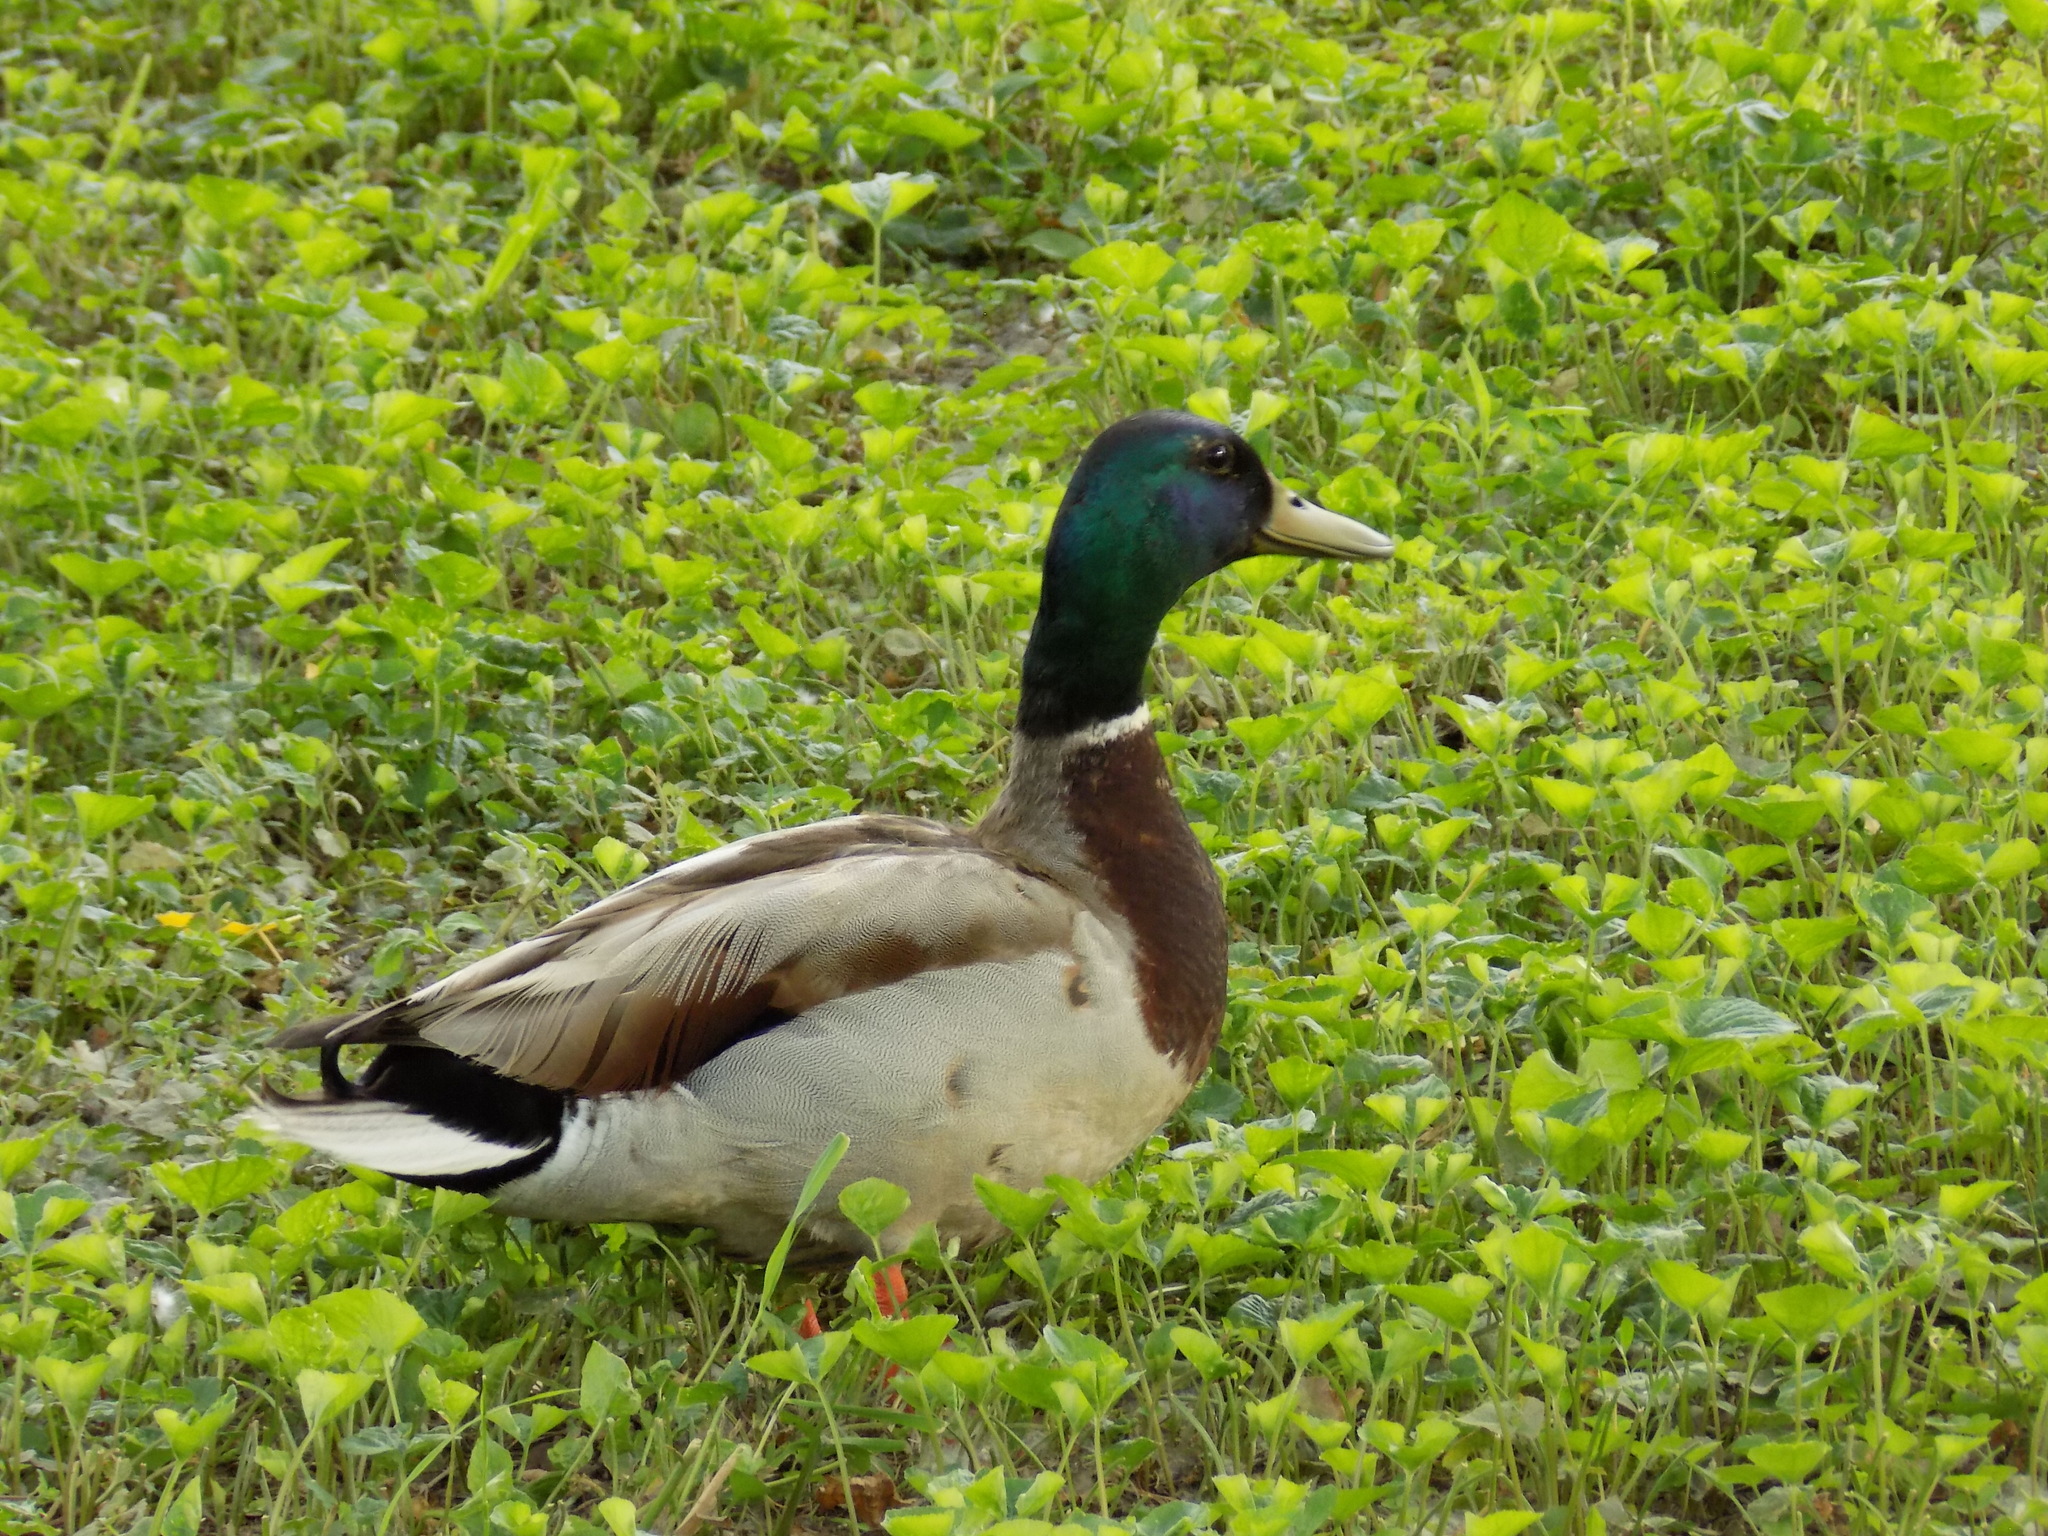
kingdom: Animalia
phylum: Chordata
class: Aves
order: Anseriformes
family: Anatidae
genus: Anas
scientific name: Anas platyrhynchos
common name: Mallard
